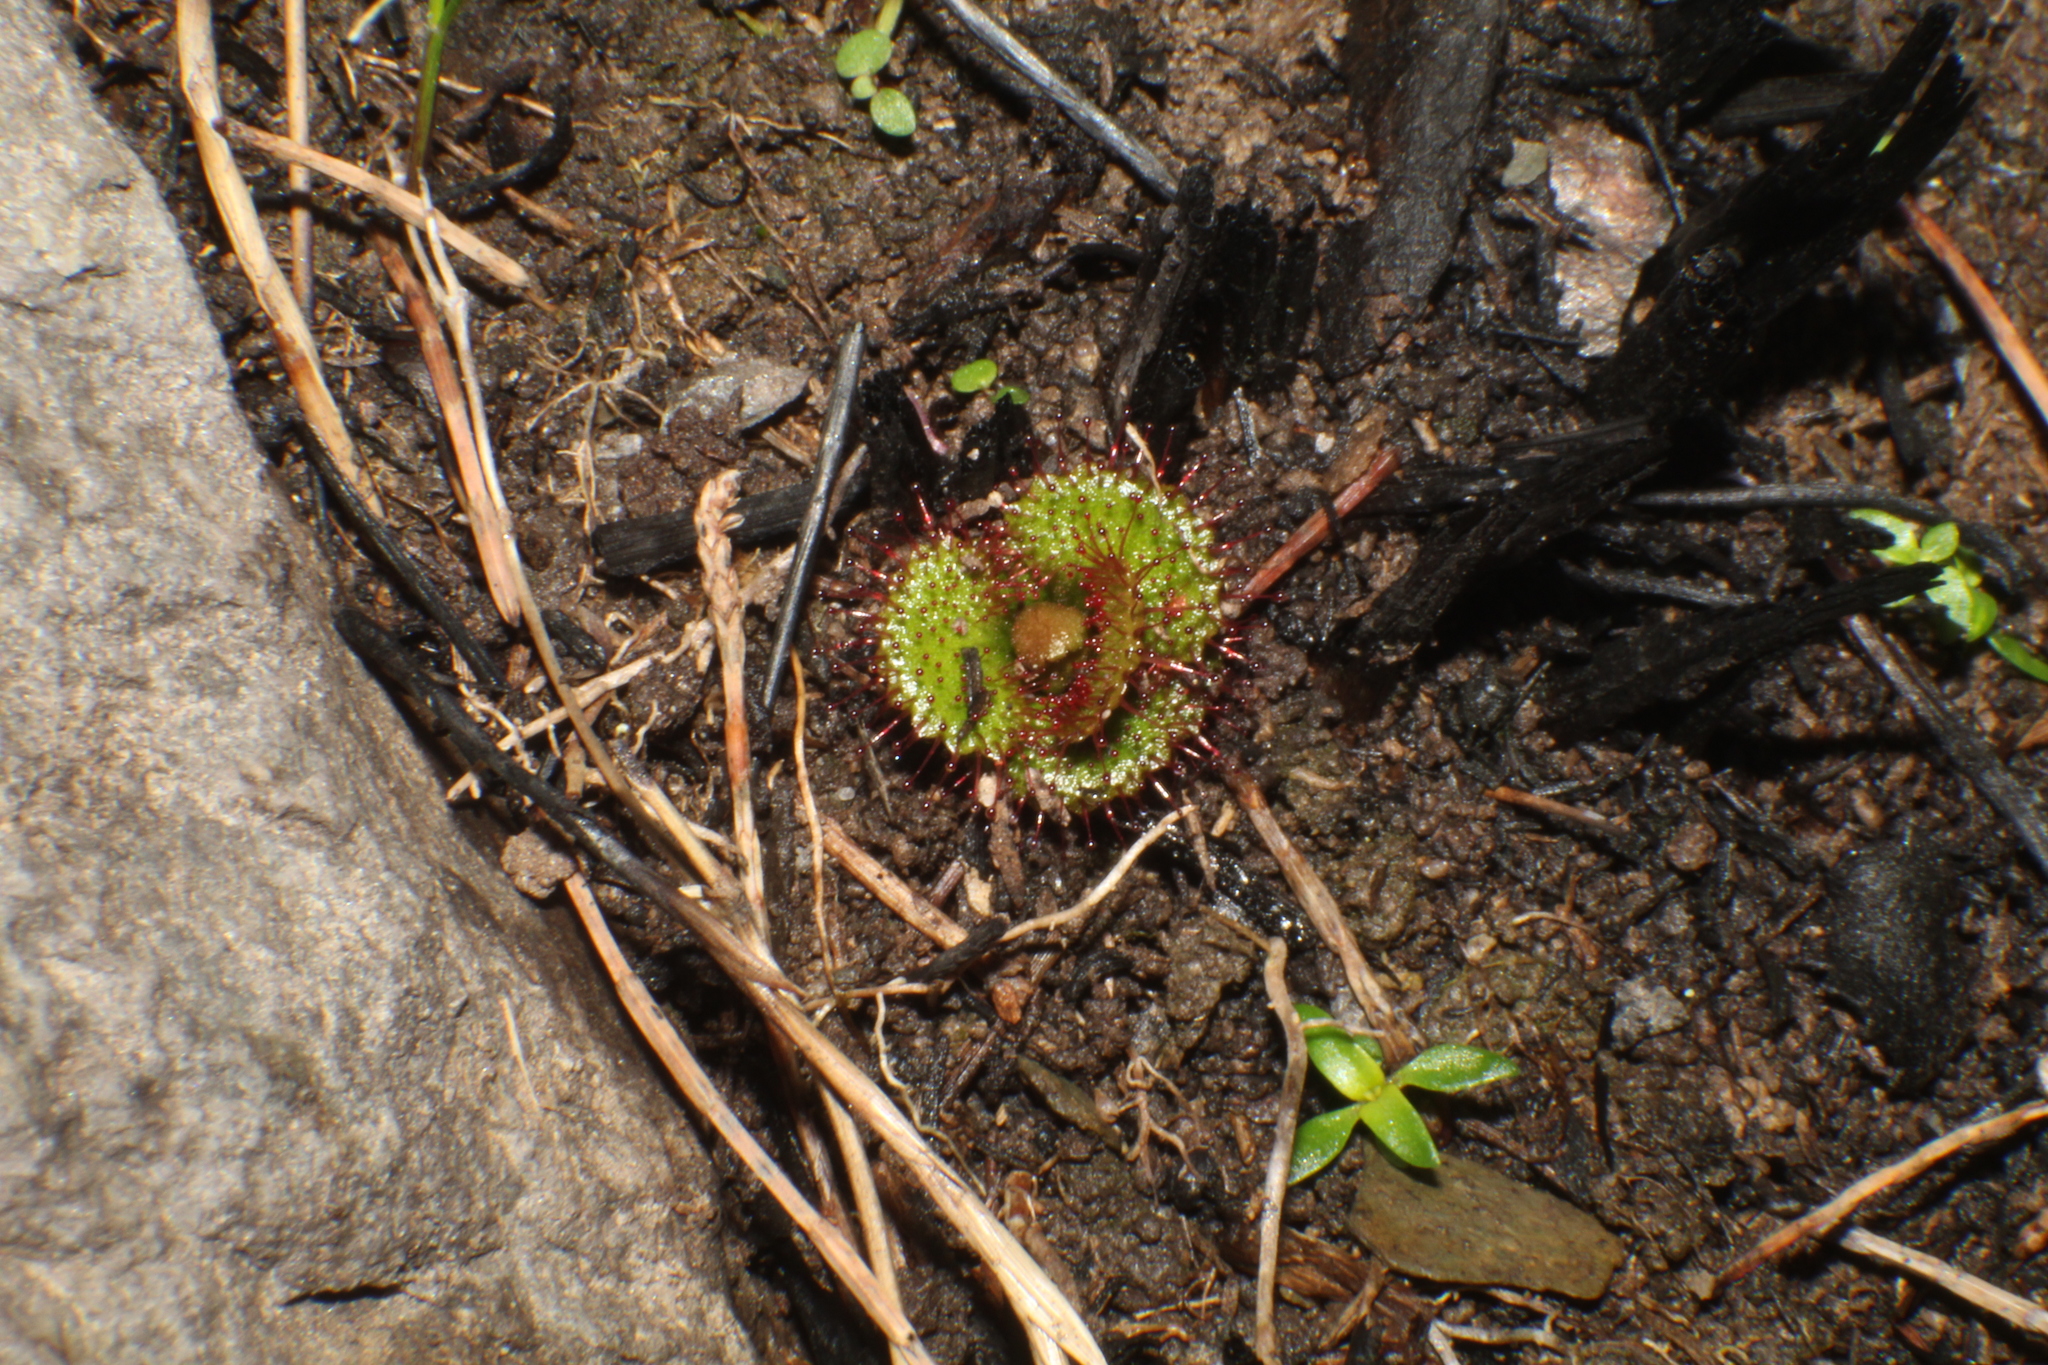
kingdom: Plantae
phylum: Tracheophyta
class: Magnoliopsida
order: Caryophyllales
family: Droseraceae
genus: Drosera
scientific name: Drosera monticola
